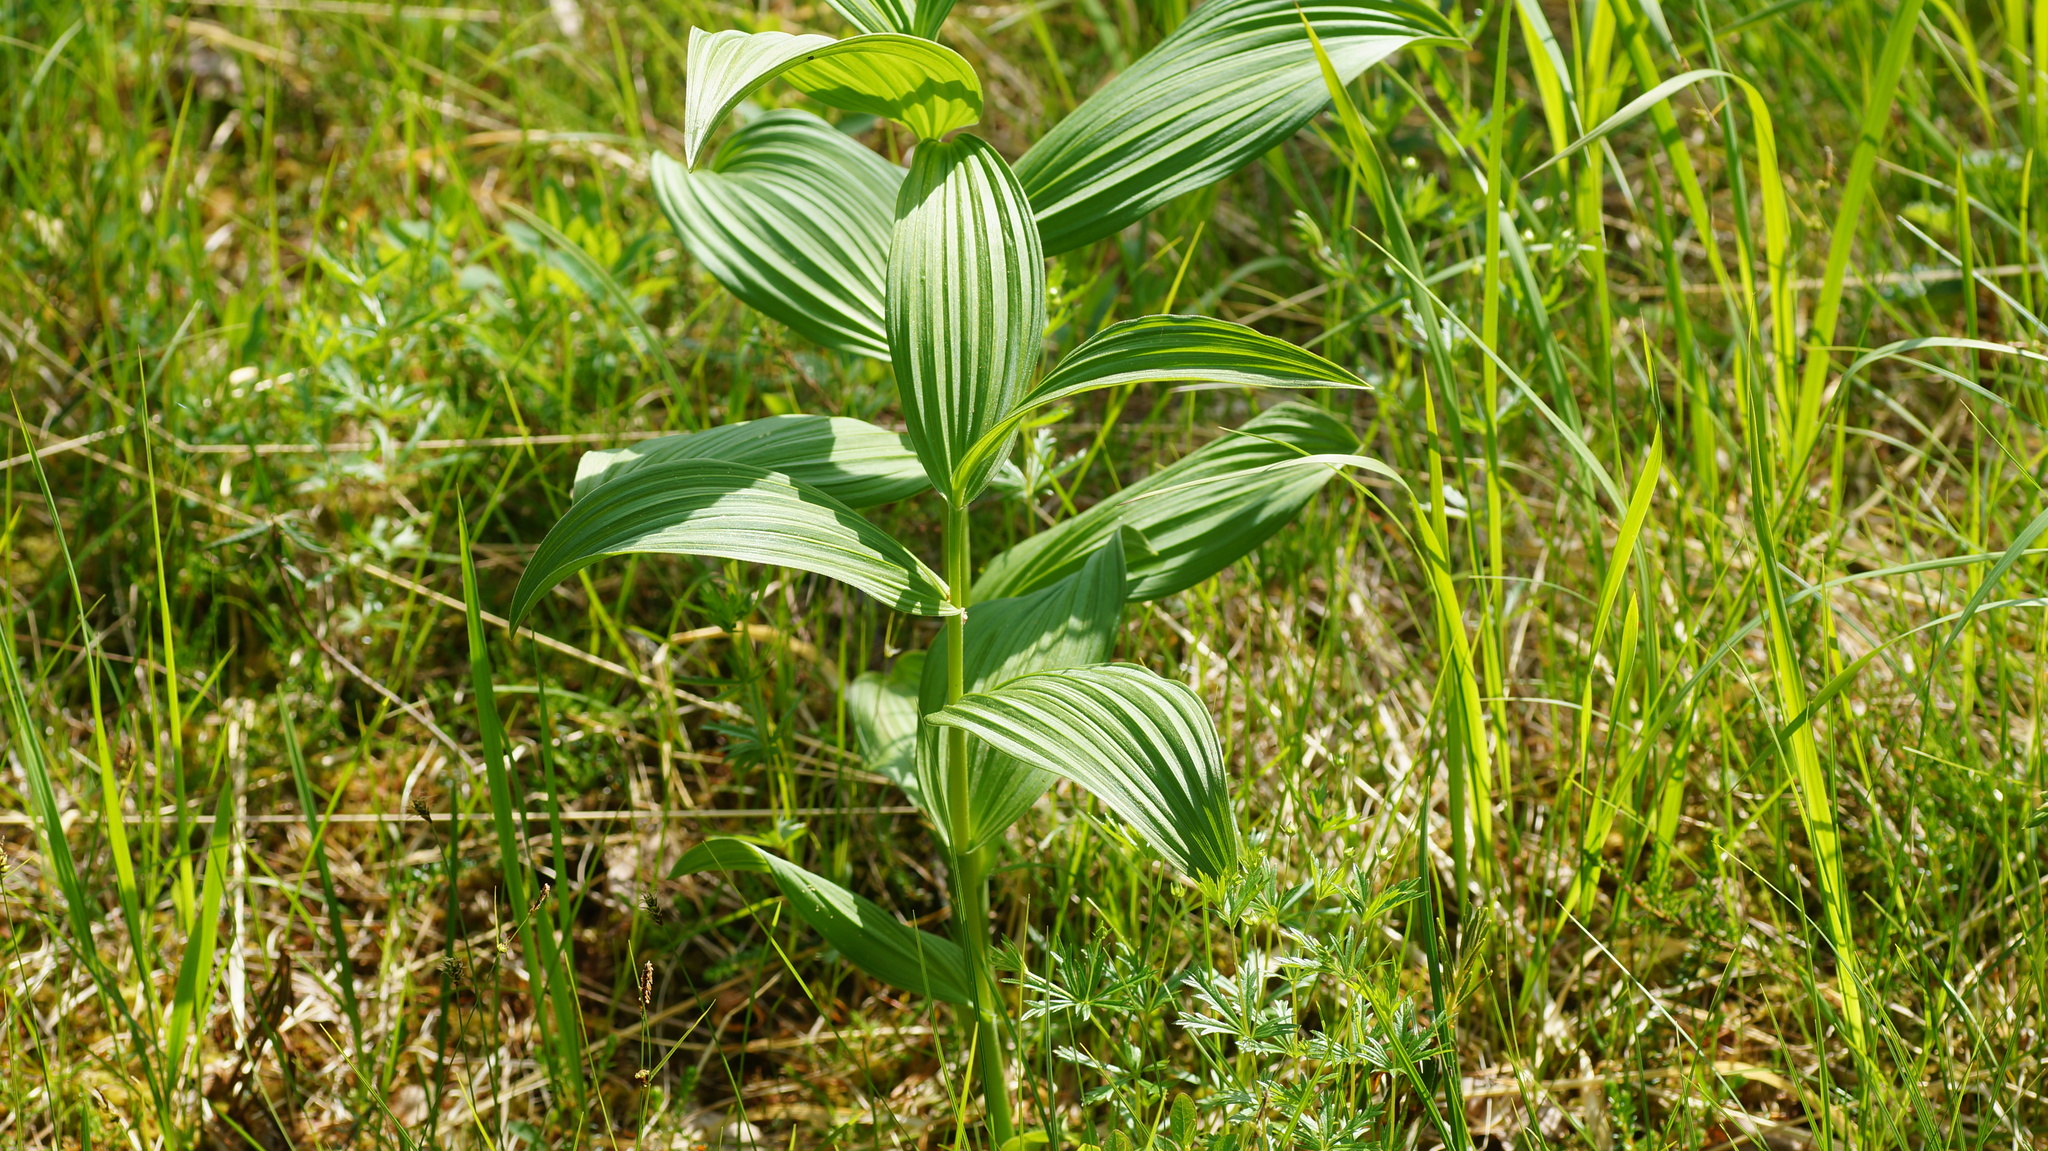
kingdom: Plantae
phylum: Tracheophyta
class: Liliopsida
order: Liliales
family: Melanthiaceae
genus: Veratrum
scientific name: Veratrum lobelianum
